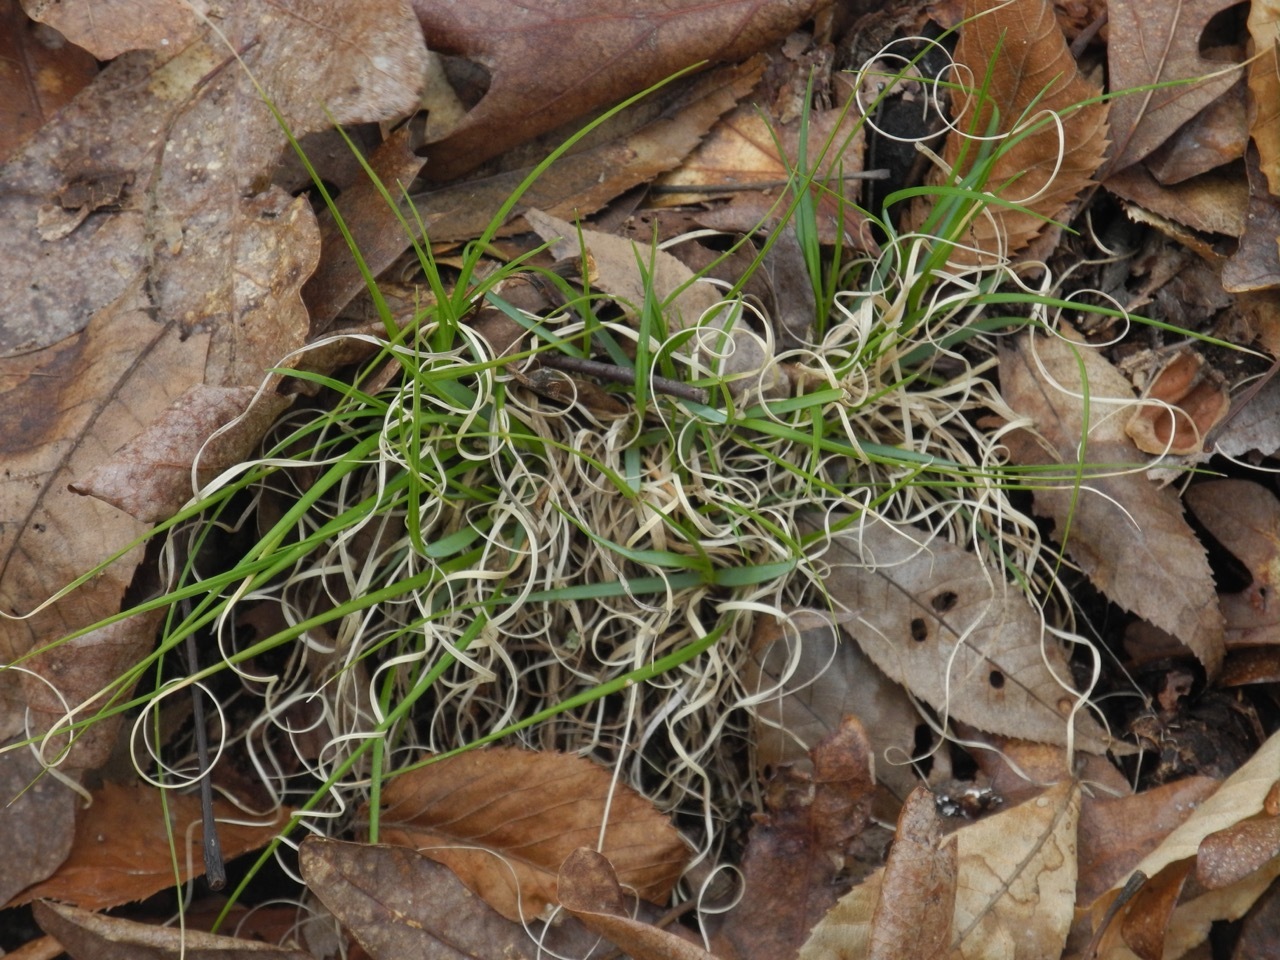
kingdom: Plantae
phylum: Tracheophyta
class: Liliopsida
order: Poales
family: Poaceae
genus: Danthonia
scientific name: Danthonia spicata
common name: Common wild oatgrass
